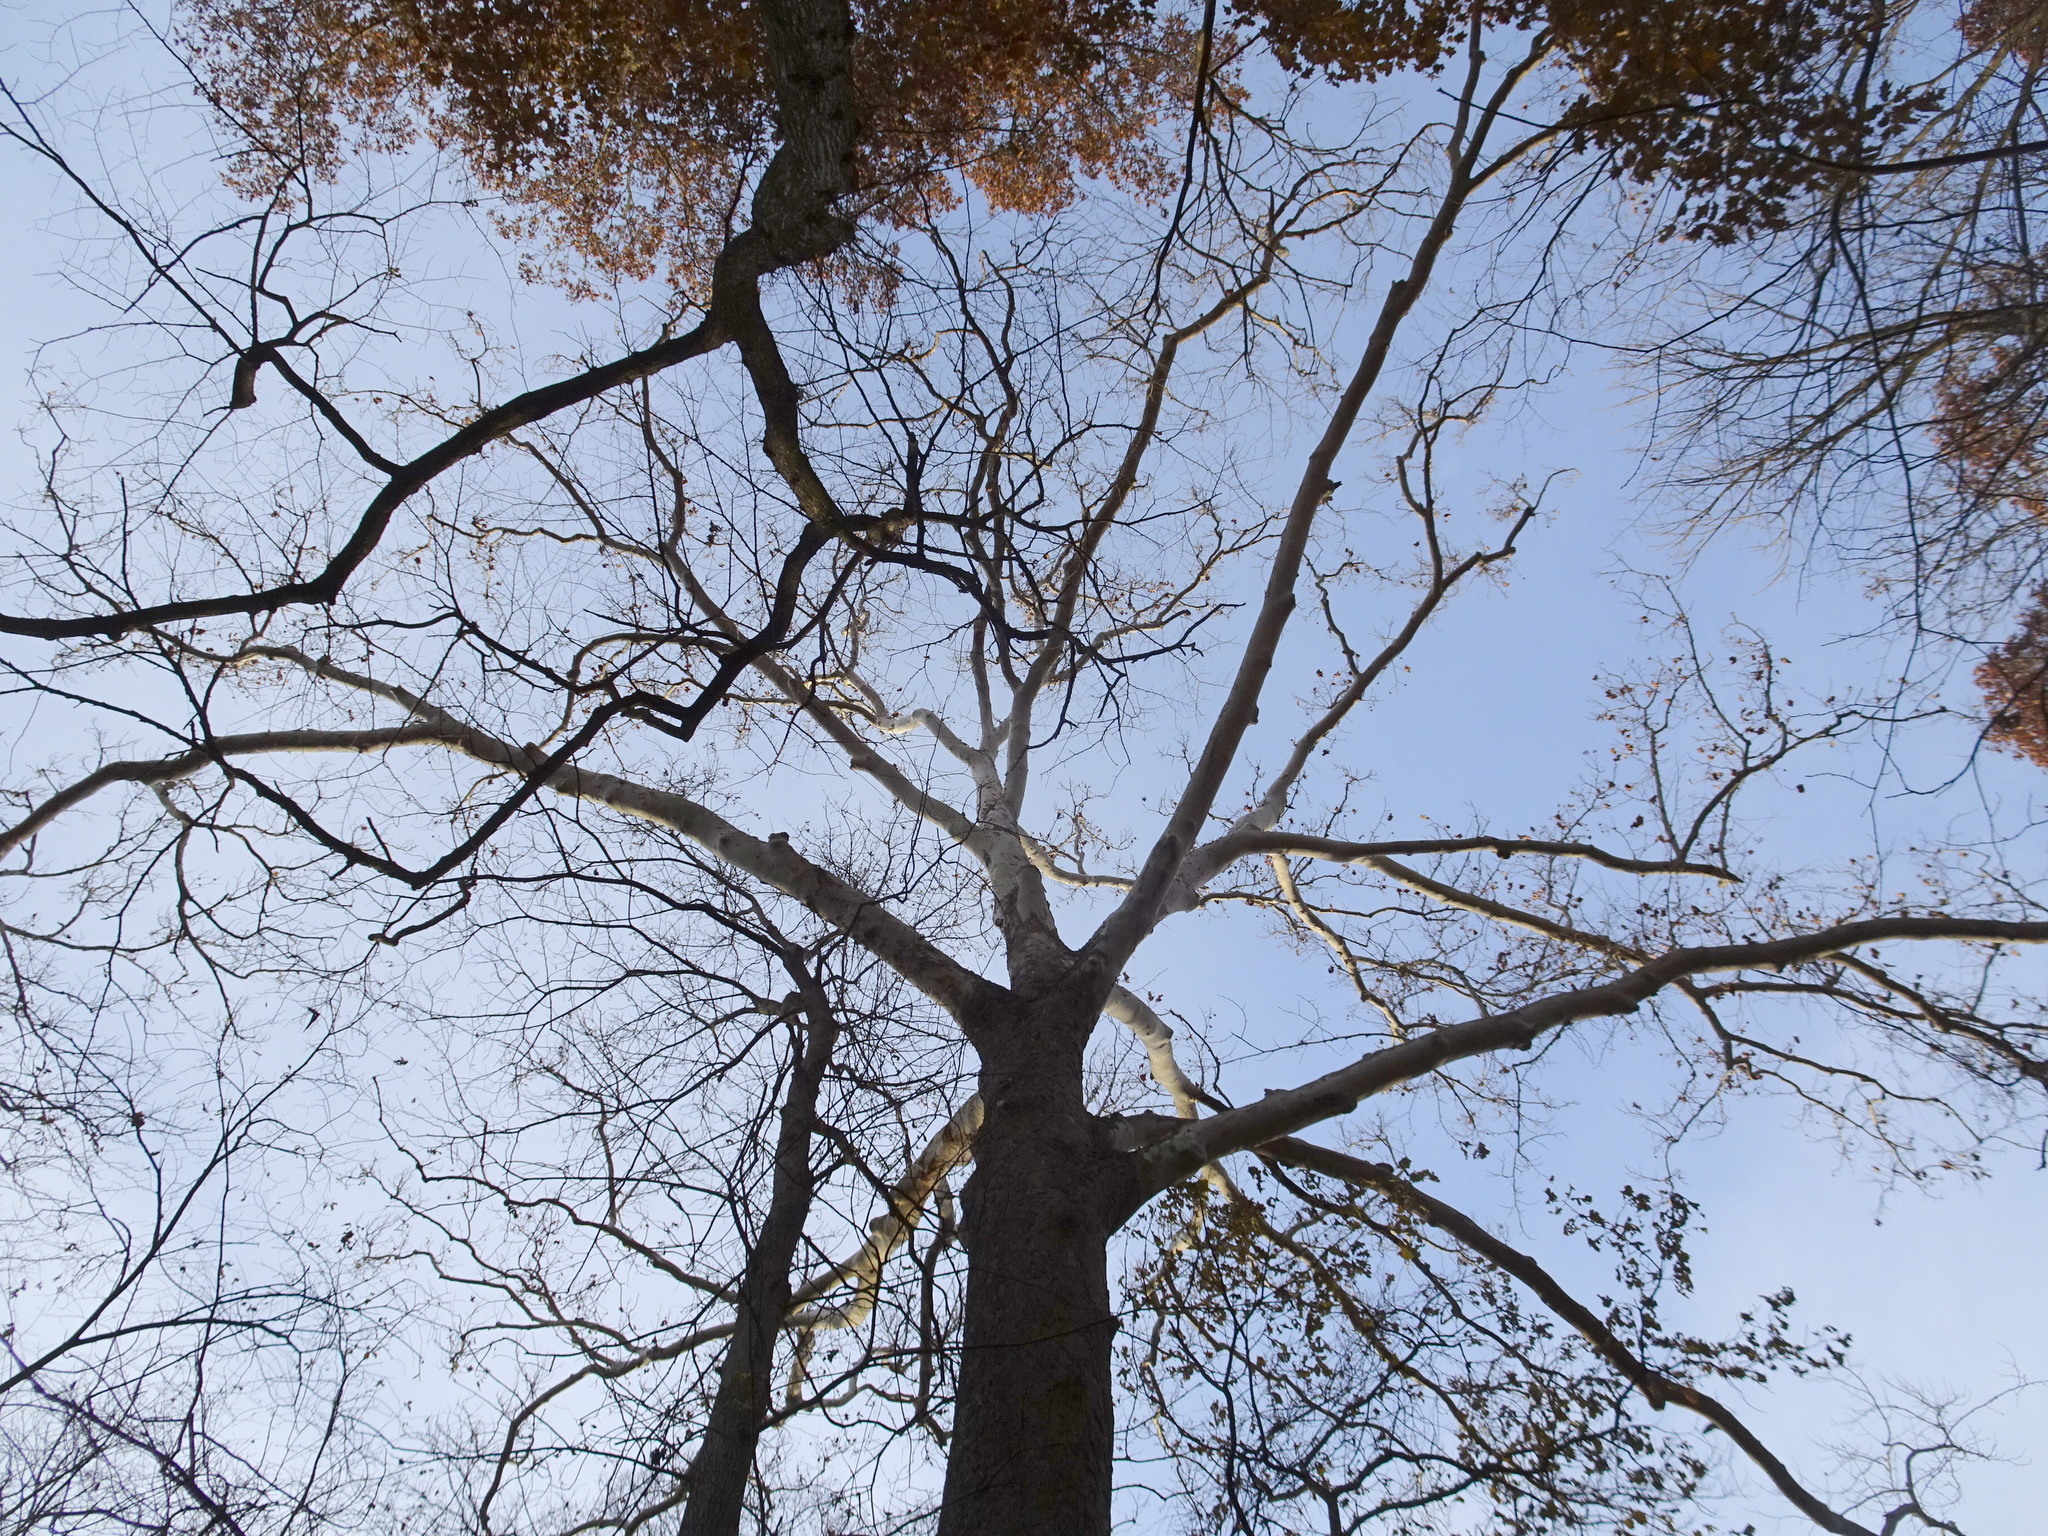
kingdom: Plantae
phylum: Tracheophyta
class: Magnoliopsida
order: Proteales
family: Platanaceae
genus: Platanus
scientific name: Platanus occidentalis
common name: American sycamore
